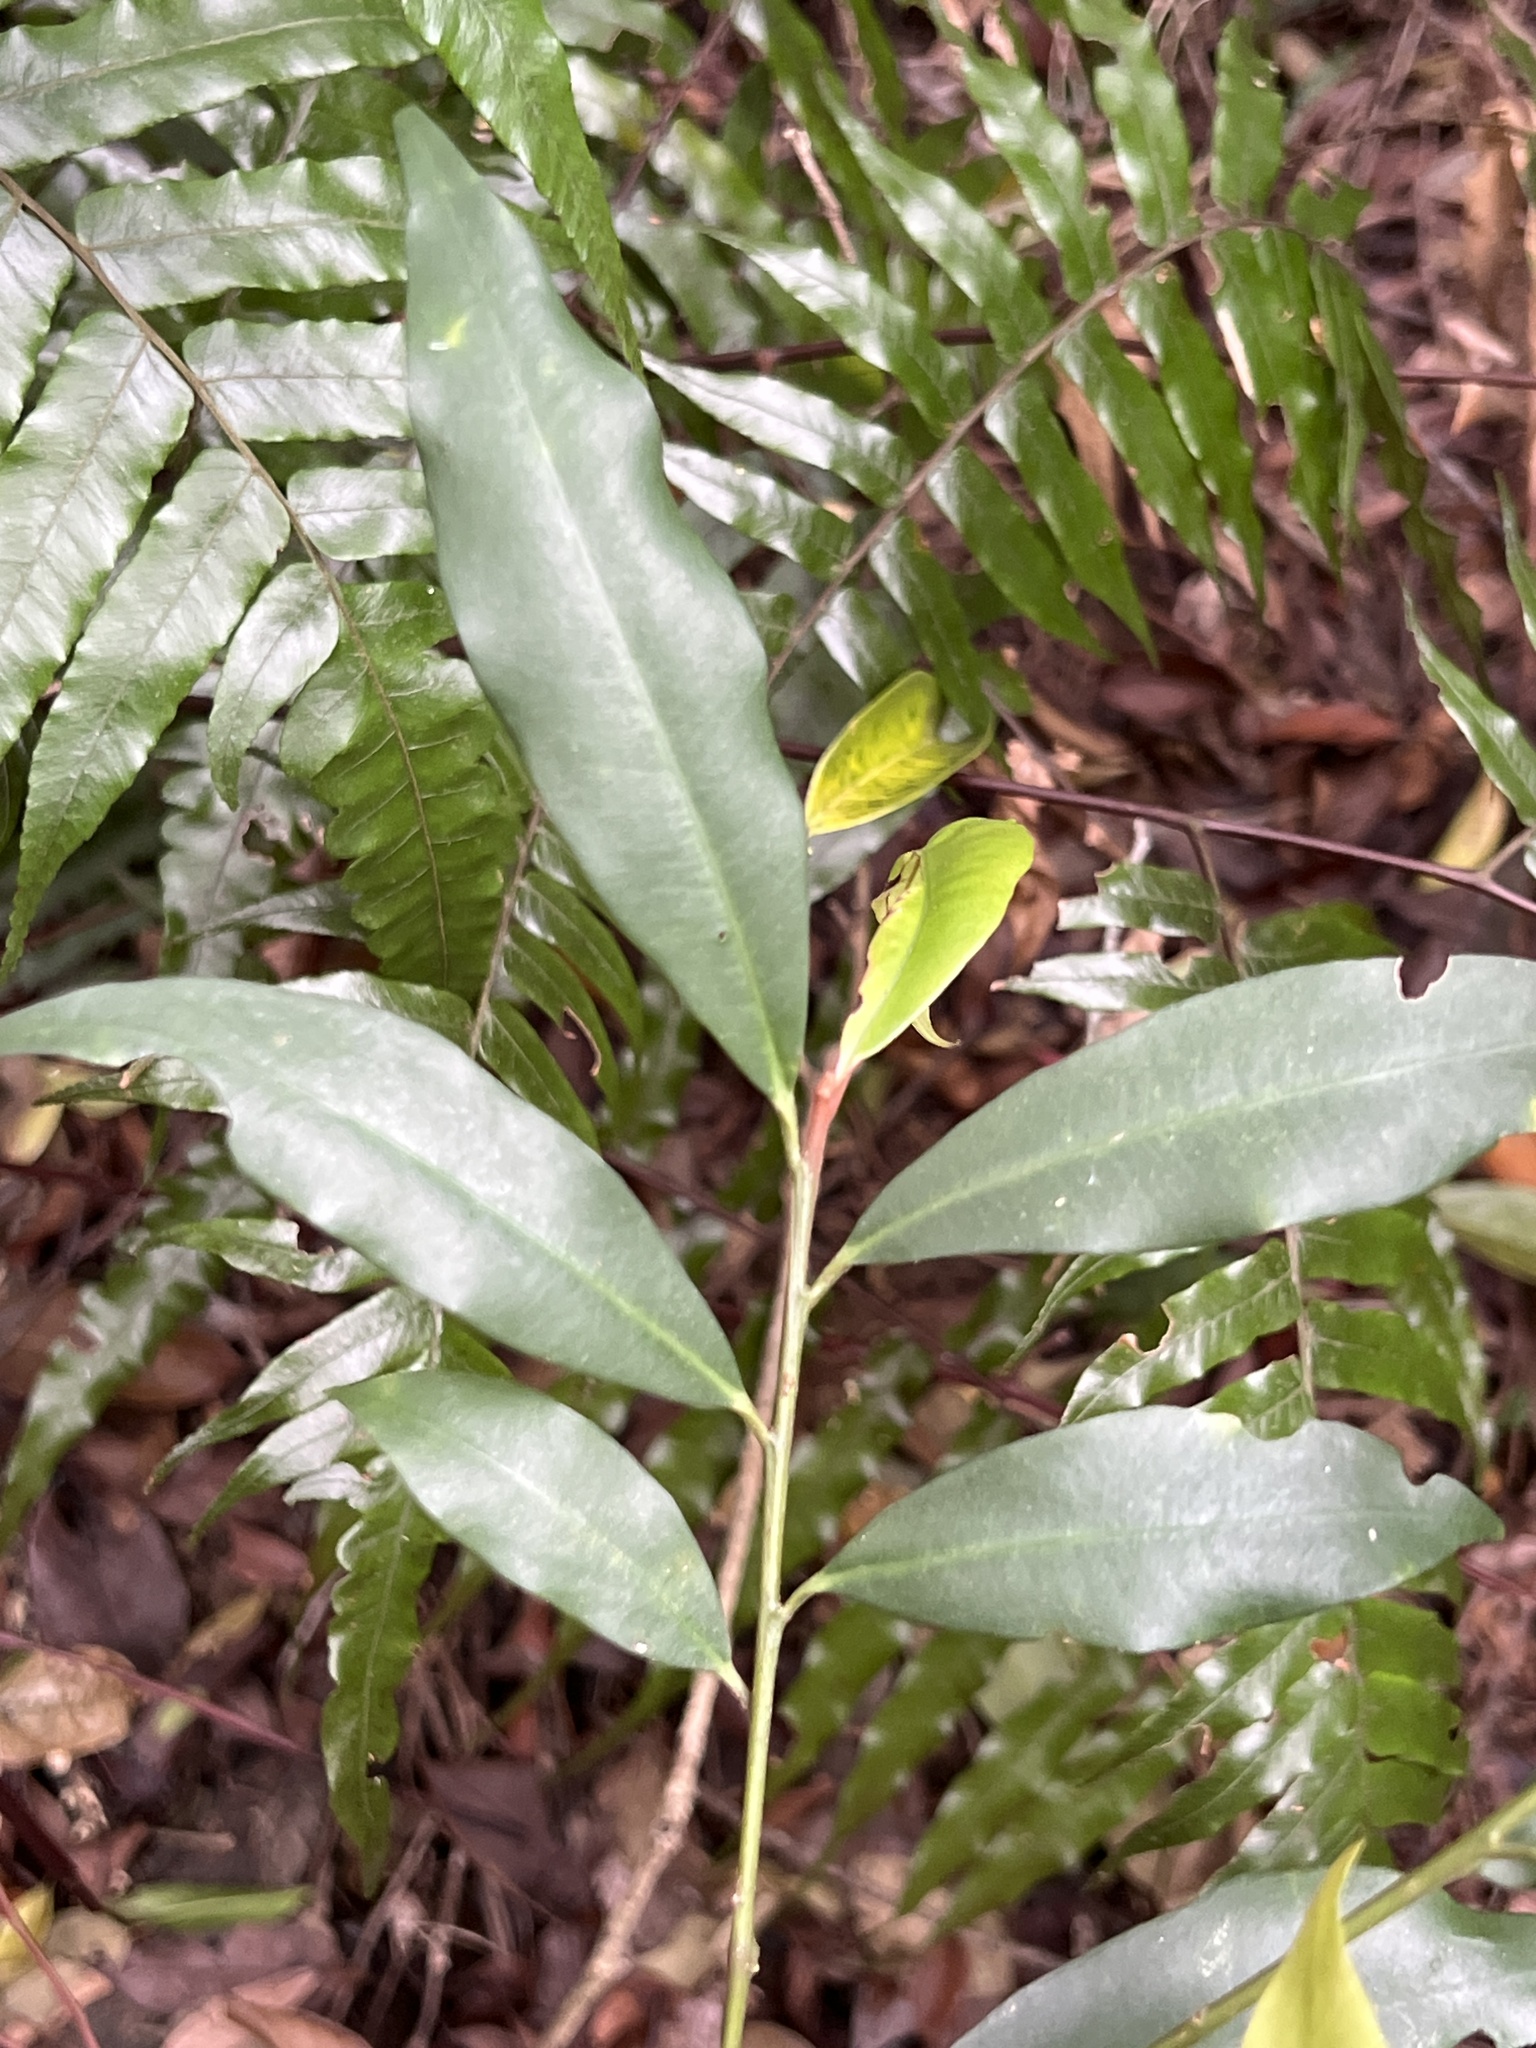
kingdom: Plantae
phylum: Tracheophyta
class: Magnoliopsida
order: Ericales
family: Primulaceae
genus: Ardisia
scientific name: Ardisia quinquegona
